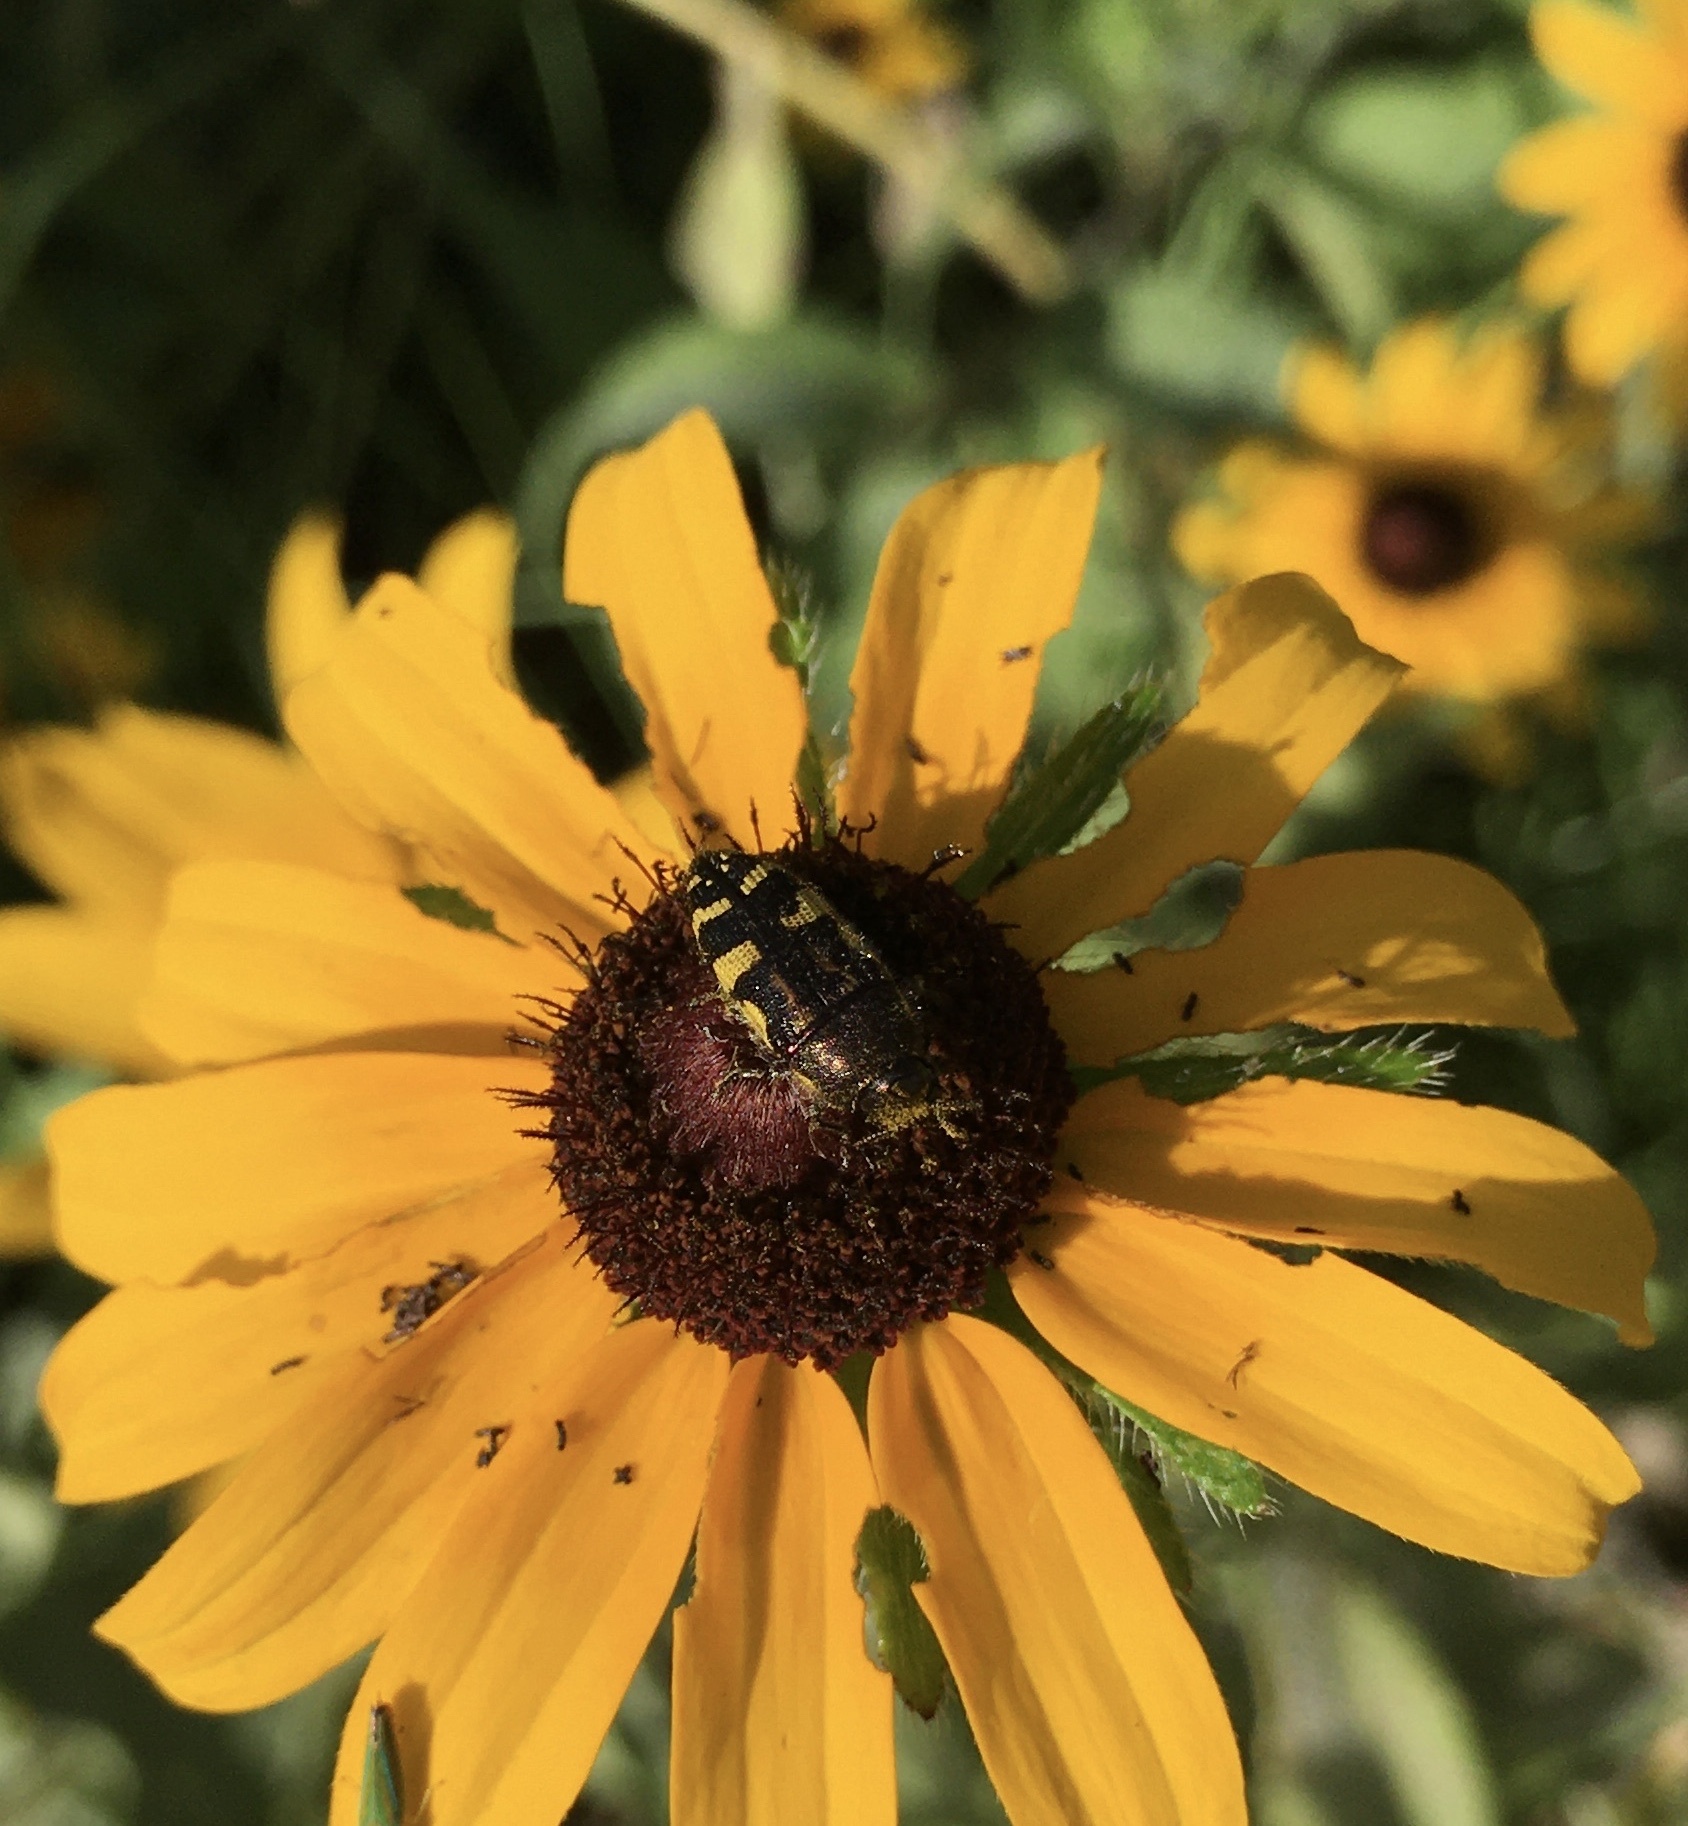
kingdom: Animalia
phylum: Arthropoda
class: Insecta
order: Coleoptera
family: Buprestidae
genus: Acmaeodera
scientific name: Acmaeodera pulchella
